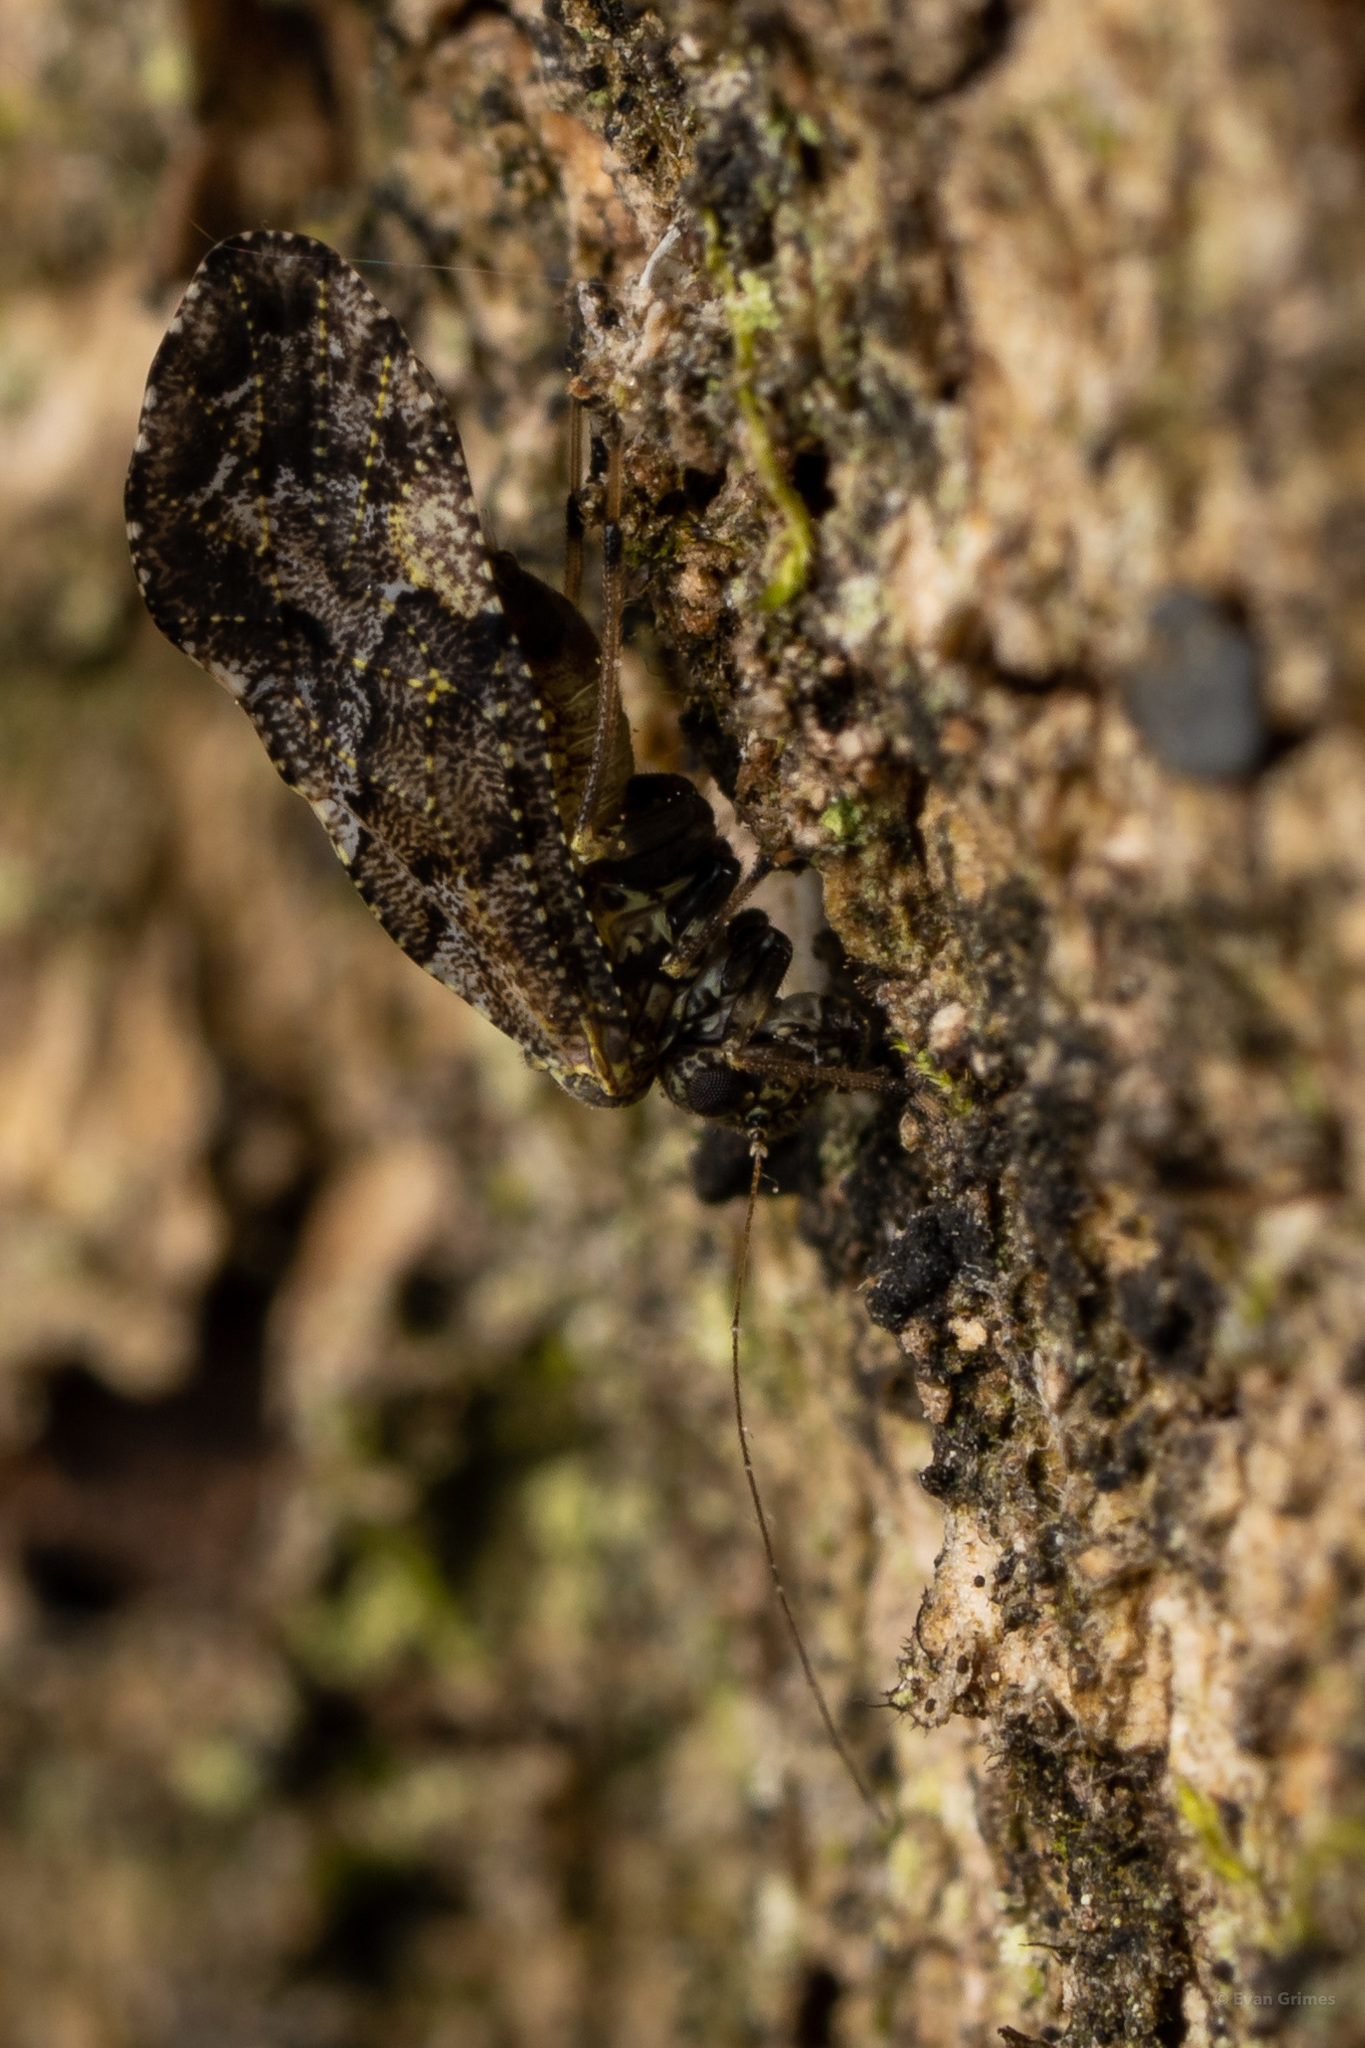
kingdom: Animalia
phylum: Arthropoda
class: Insecta
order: Psocodea
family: Myopsocidae
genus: Lichenomima
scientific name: Lichenomima lugens
